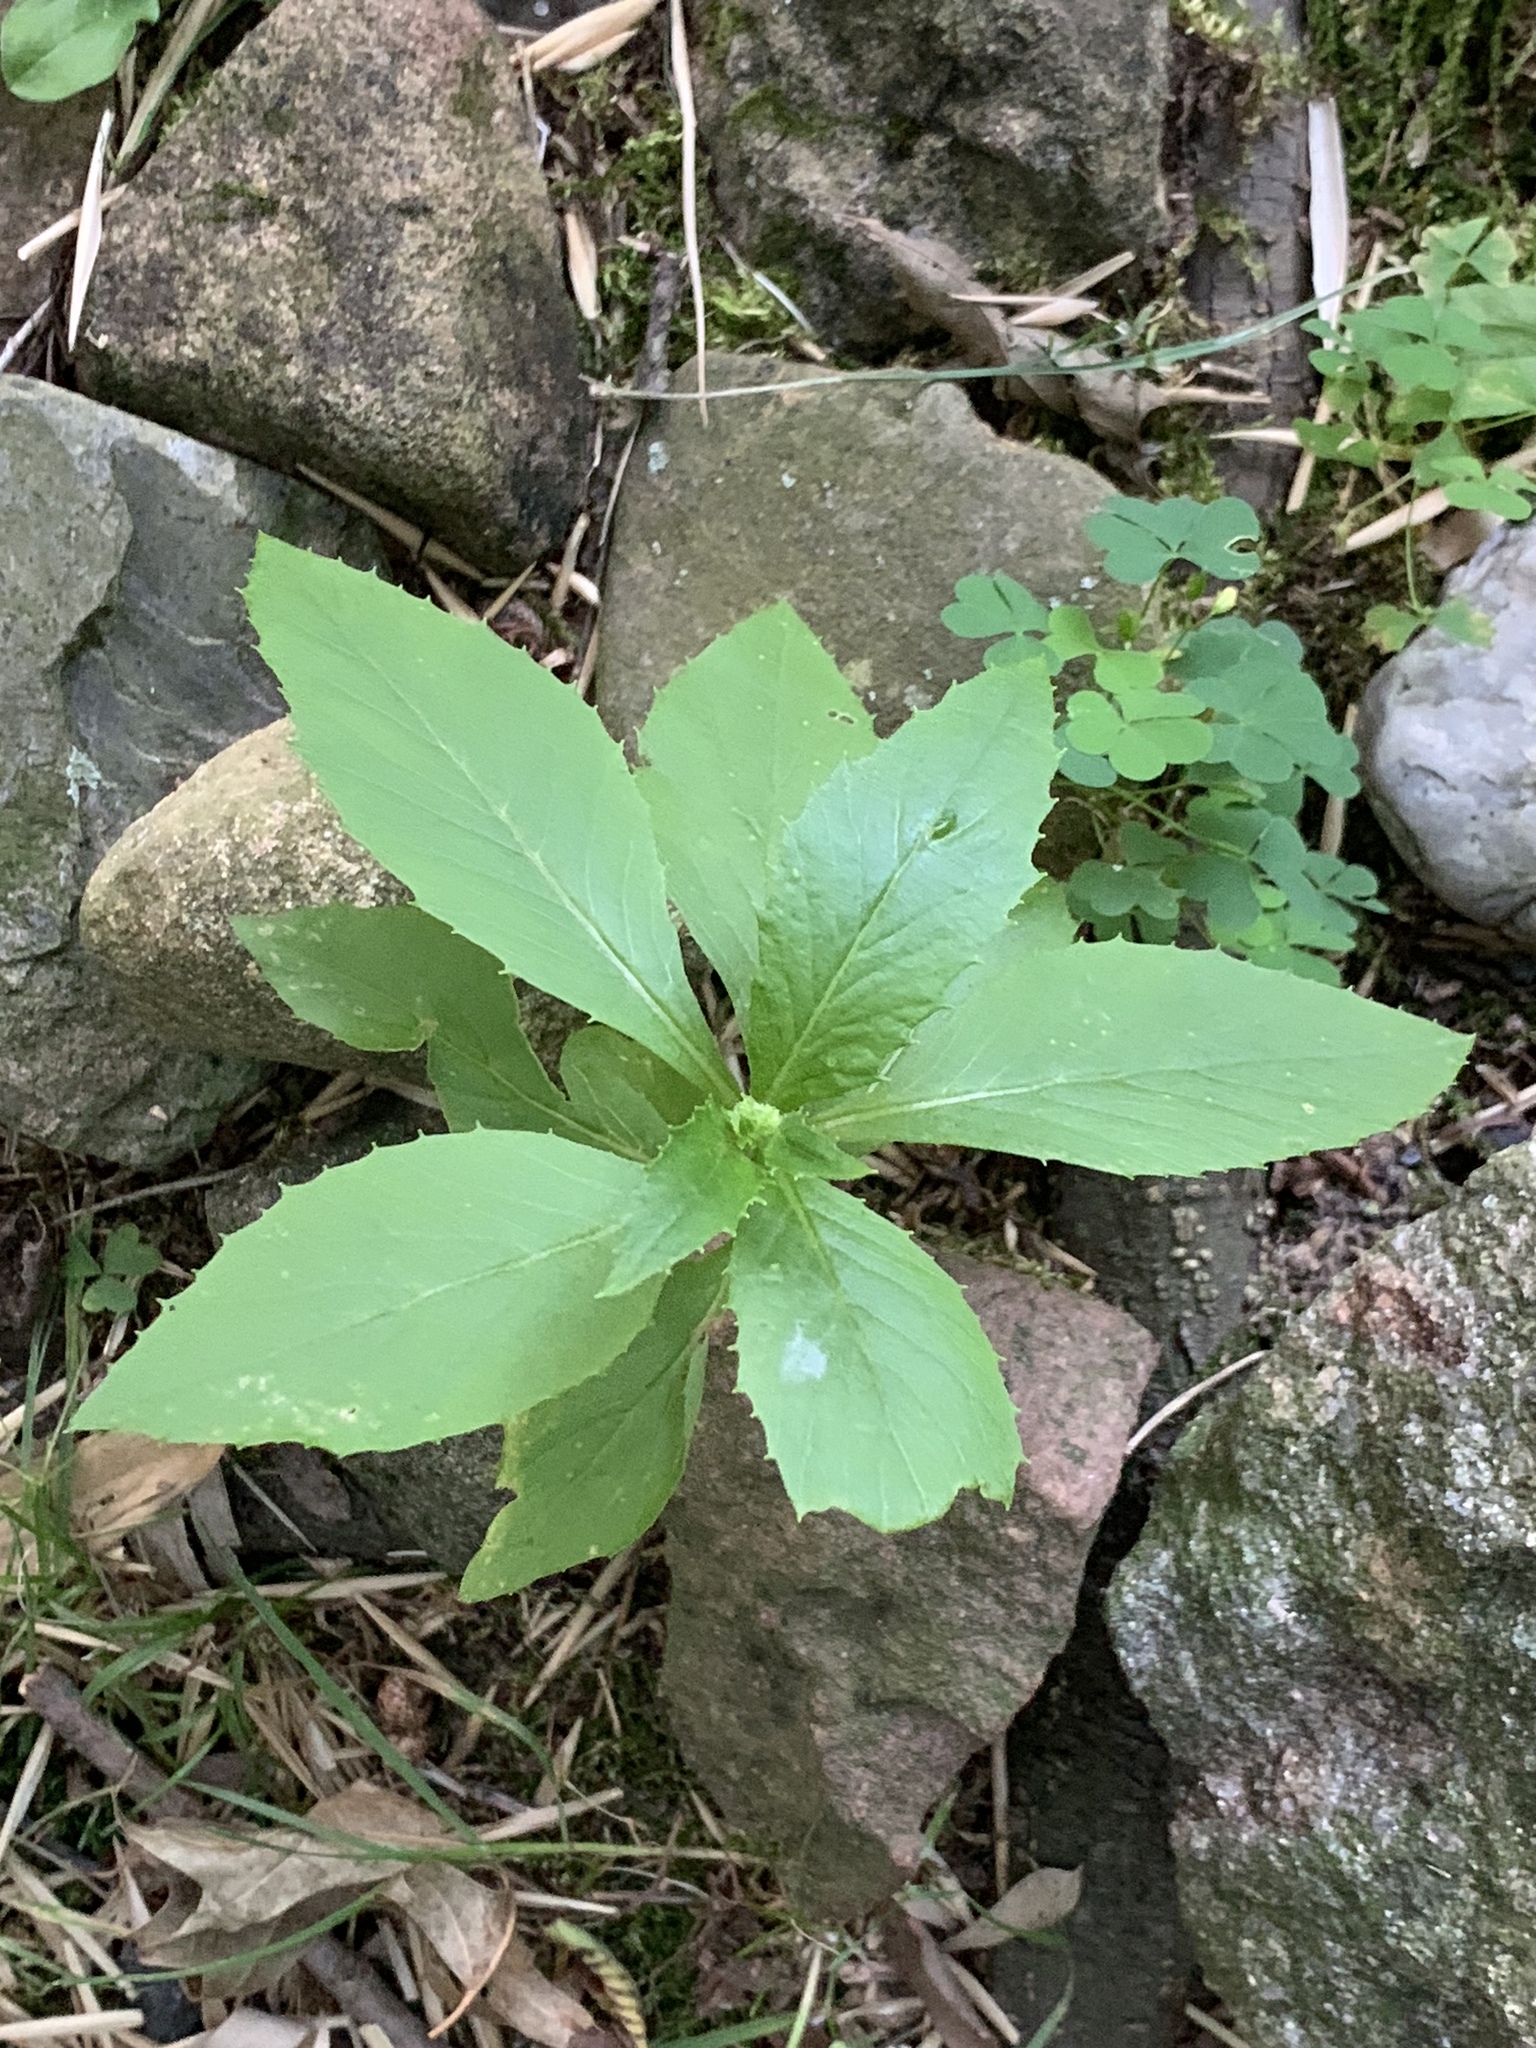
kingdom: Plantae
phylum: Tracheophyta
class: Magnoliopsida
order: Asterales
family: Asteraceae
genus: Erechtites
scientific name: Erechtites hieraciifolius
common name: American burnweed
